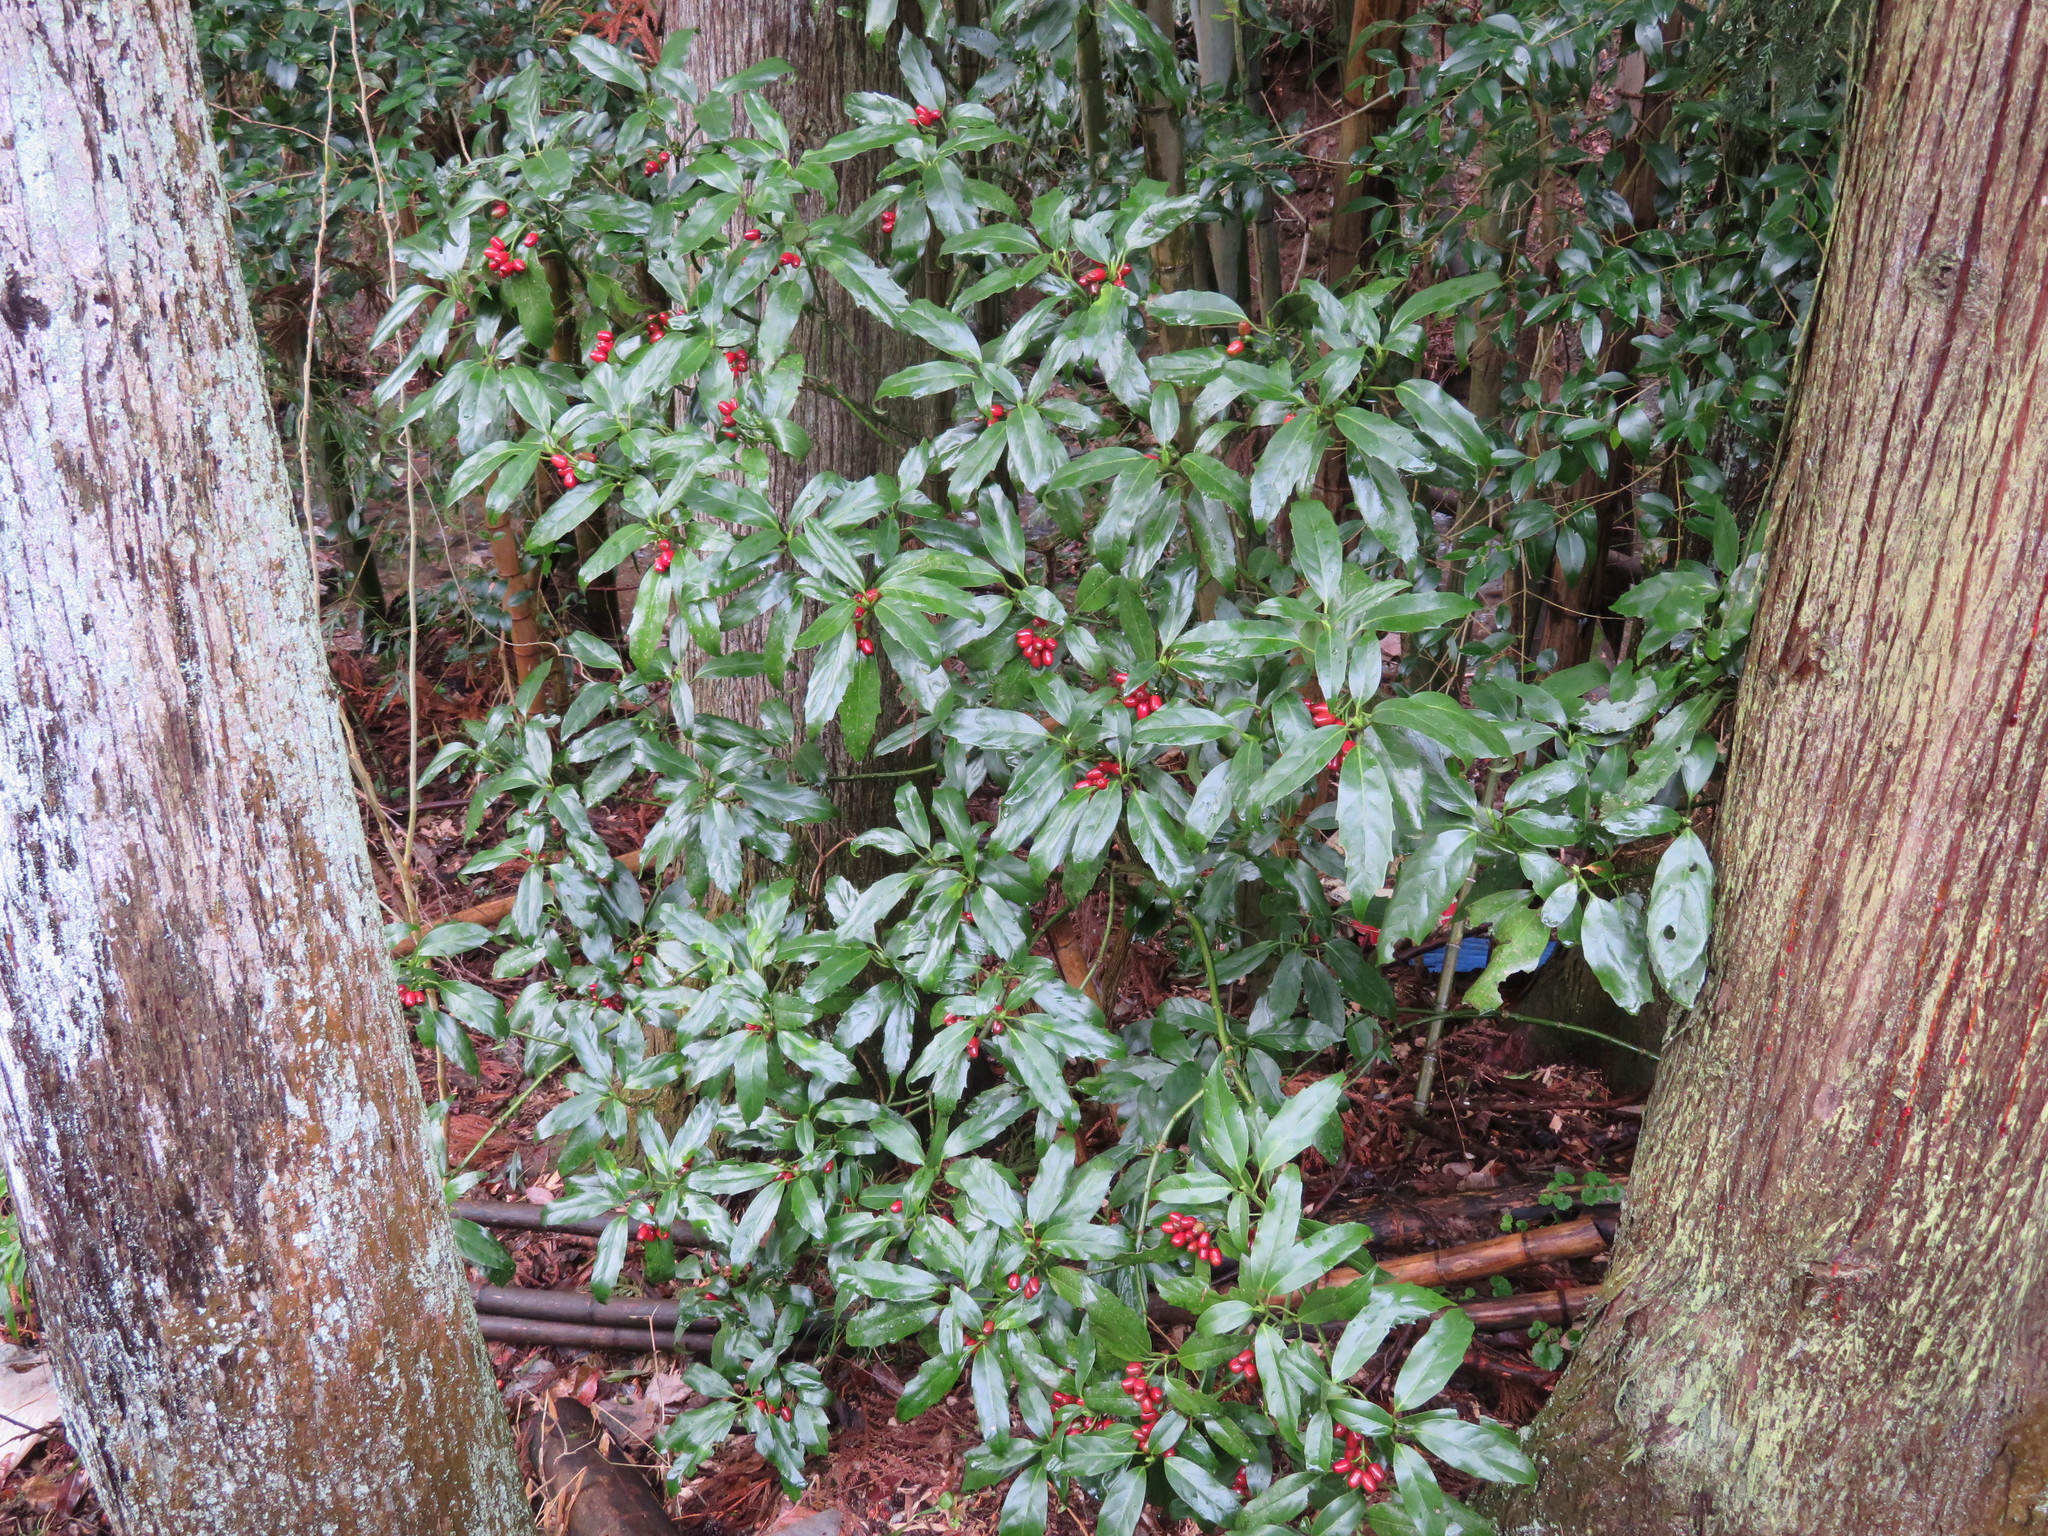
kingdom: Plantae
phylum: Tracheophyta
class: Magnoliopsida
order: Garryales
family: Garryaceae
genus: Aucuba
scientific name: Aucuba japonica
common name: Spotted-laurel
